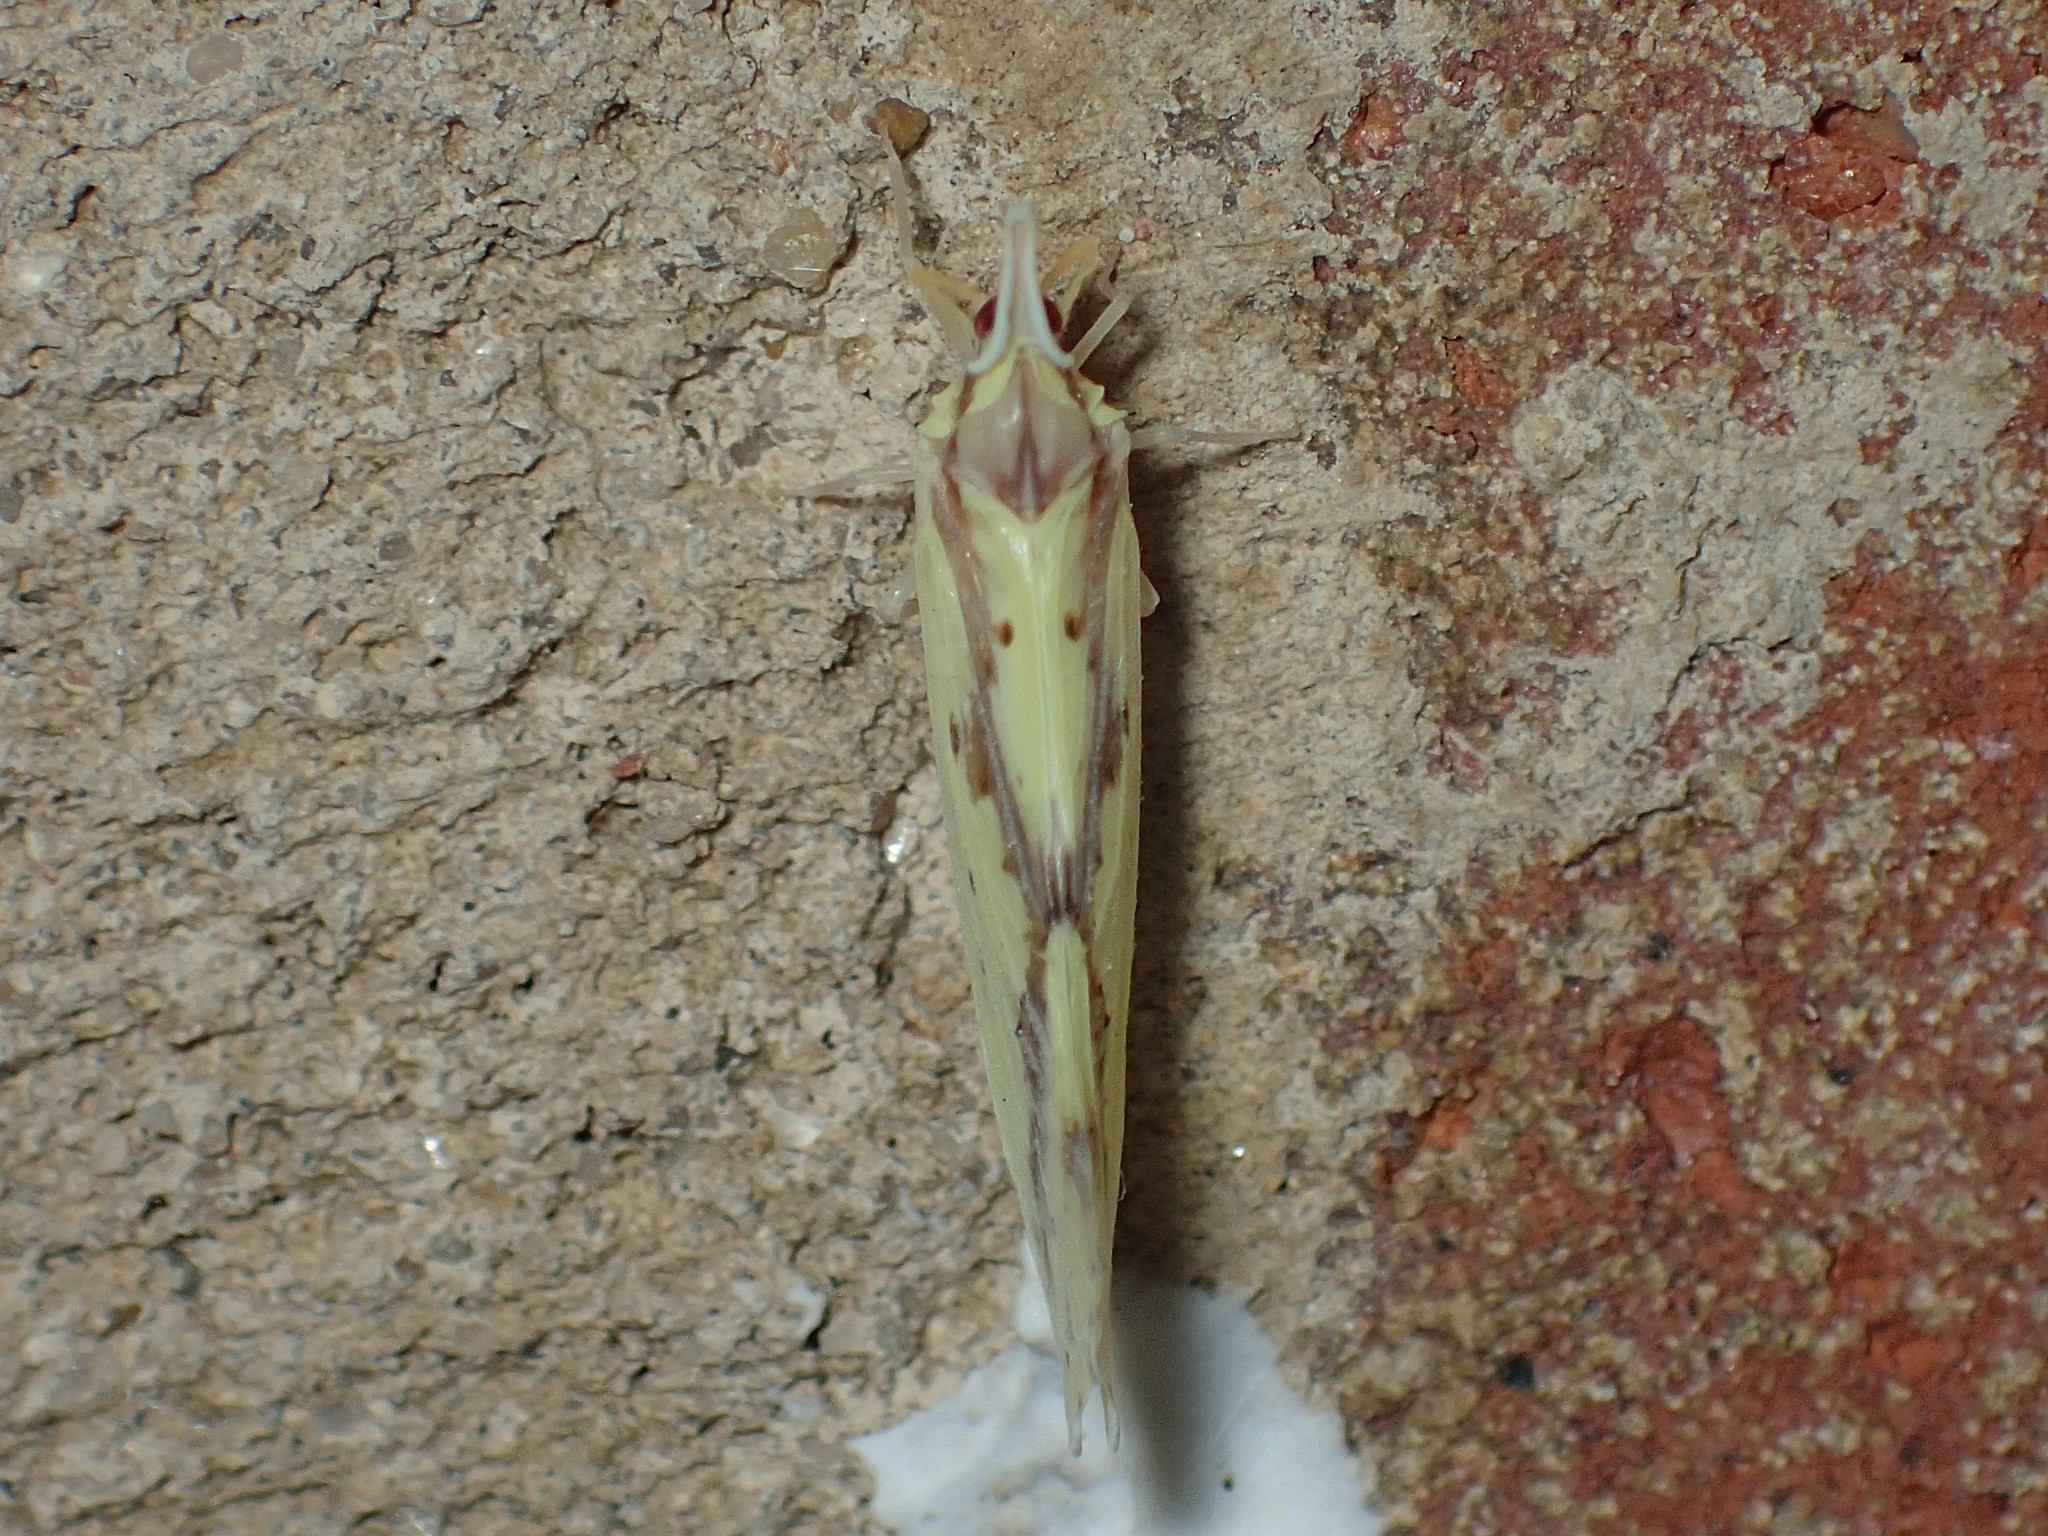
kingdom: Animalia
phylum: Arthropoda
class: Insecta
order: Hemiptera
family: Derbidae
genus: Otiocerus
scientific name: Otiocerus wolfii
